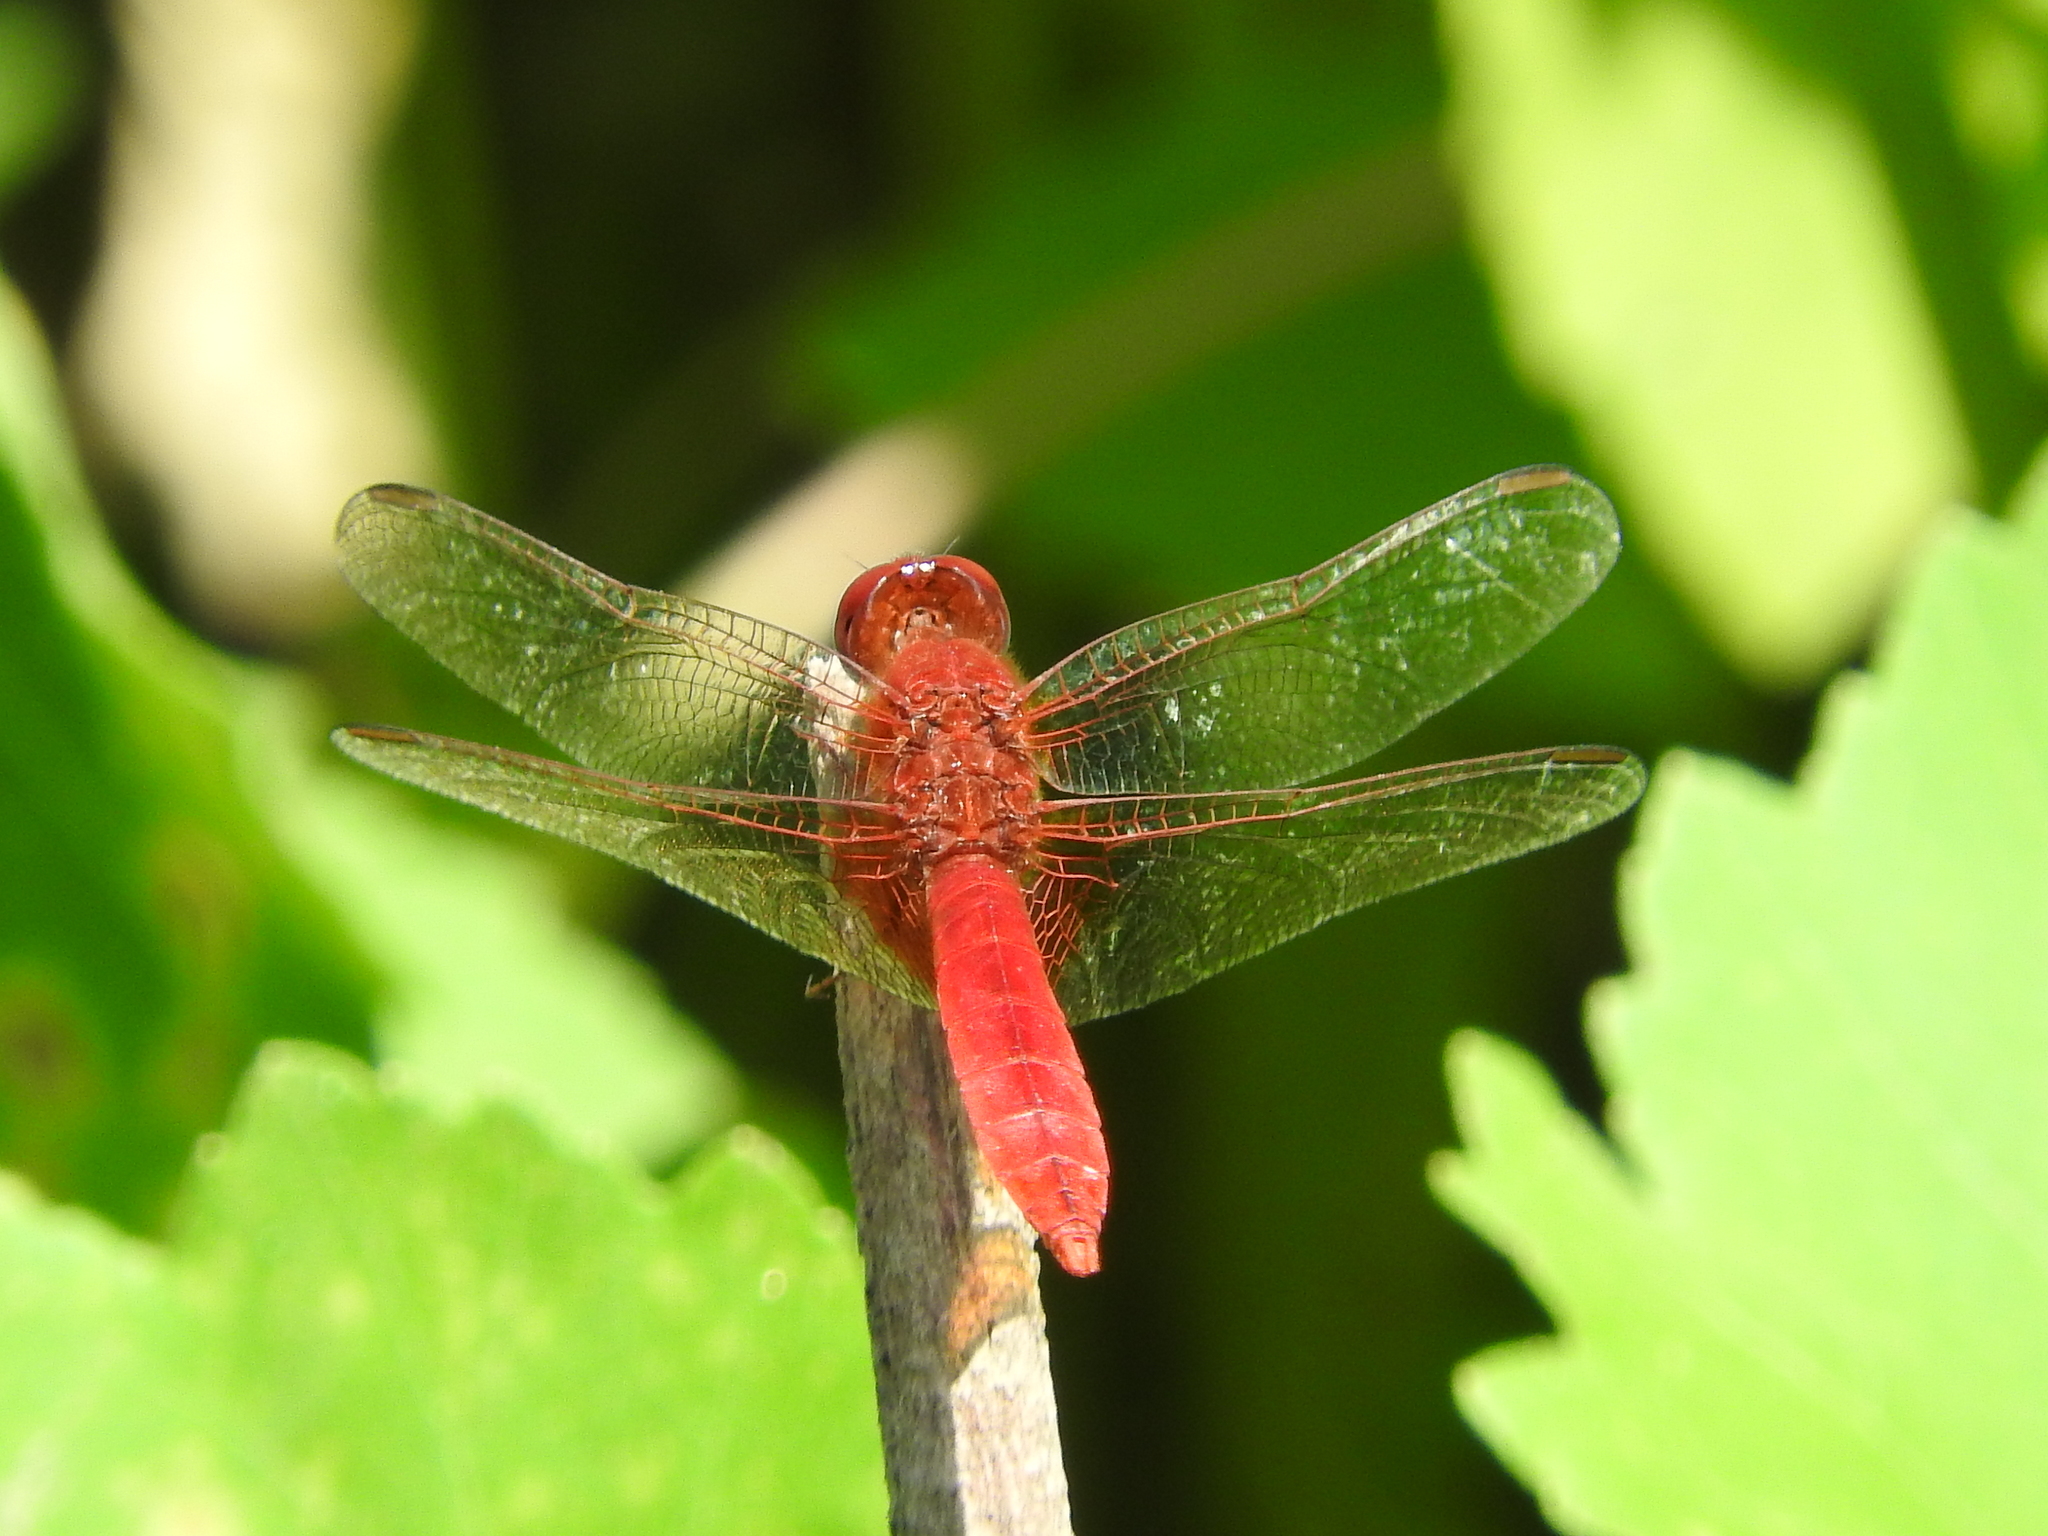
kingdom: Animalia
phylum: Arthropoda
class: Insecta
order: Odonata
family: Libellulidae
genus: Crocothemis
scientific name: Crocothemis erythraea
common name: Scarlet dragonfly
